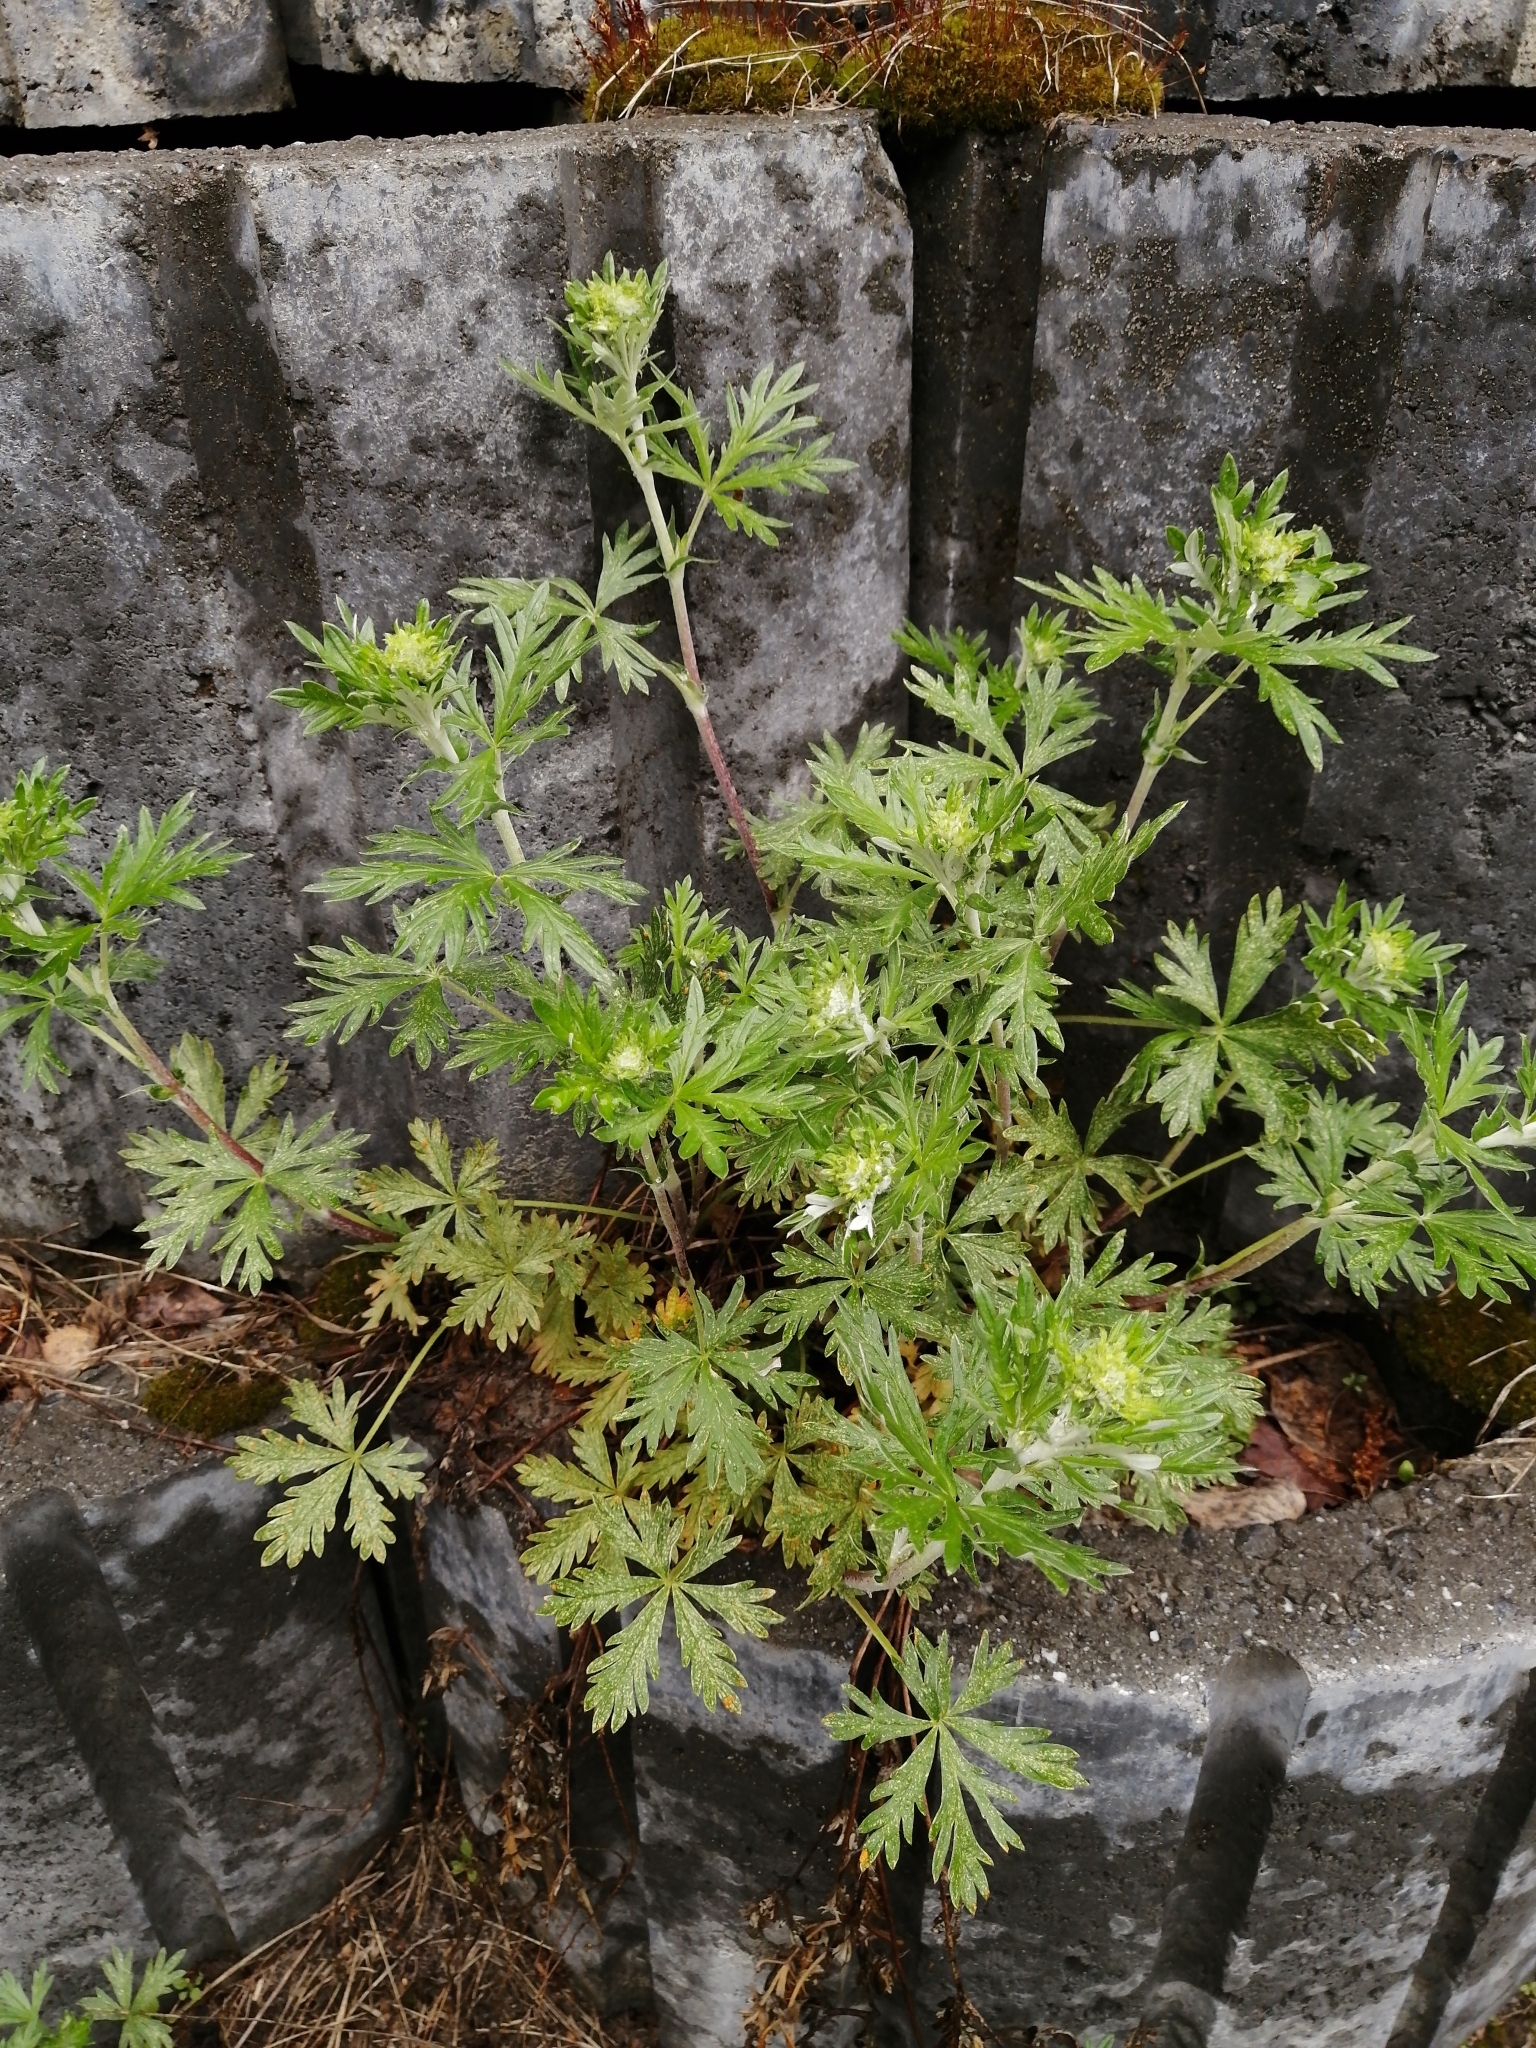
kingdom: Plantae
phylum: Tracheophyta
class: Magnoliopsida
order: Rosales
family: Rosaceae
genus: Potentilla
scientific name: Potentilla argentea
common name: Hoary cinquefoil
